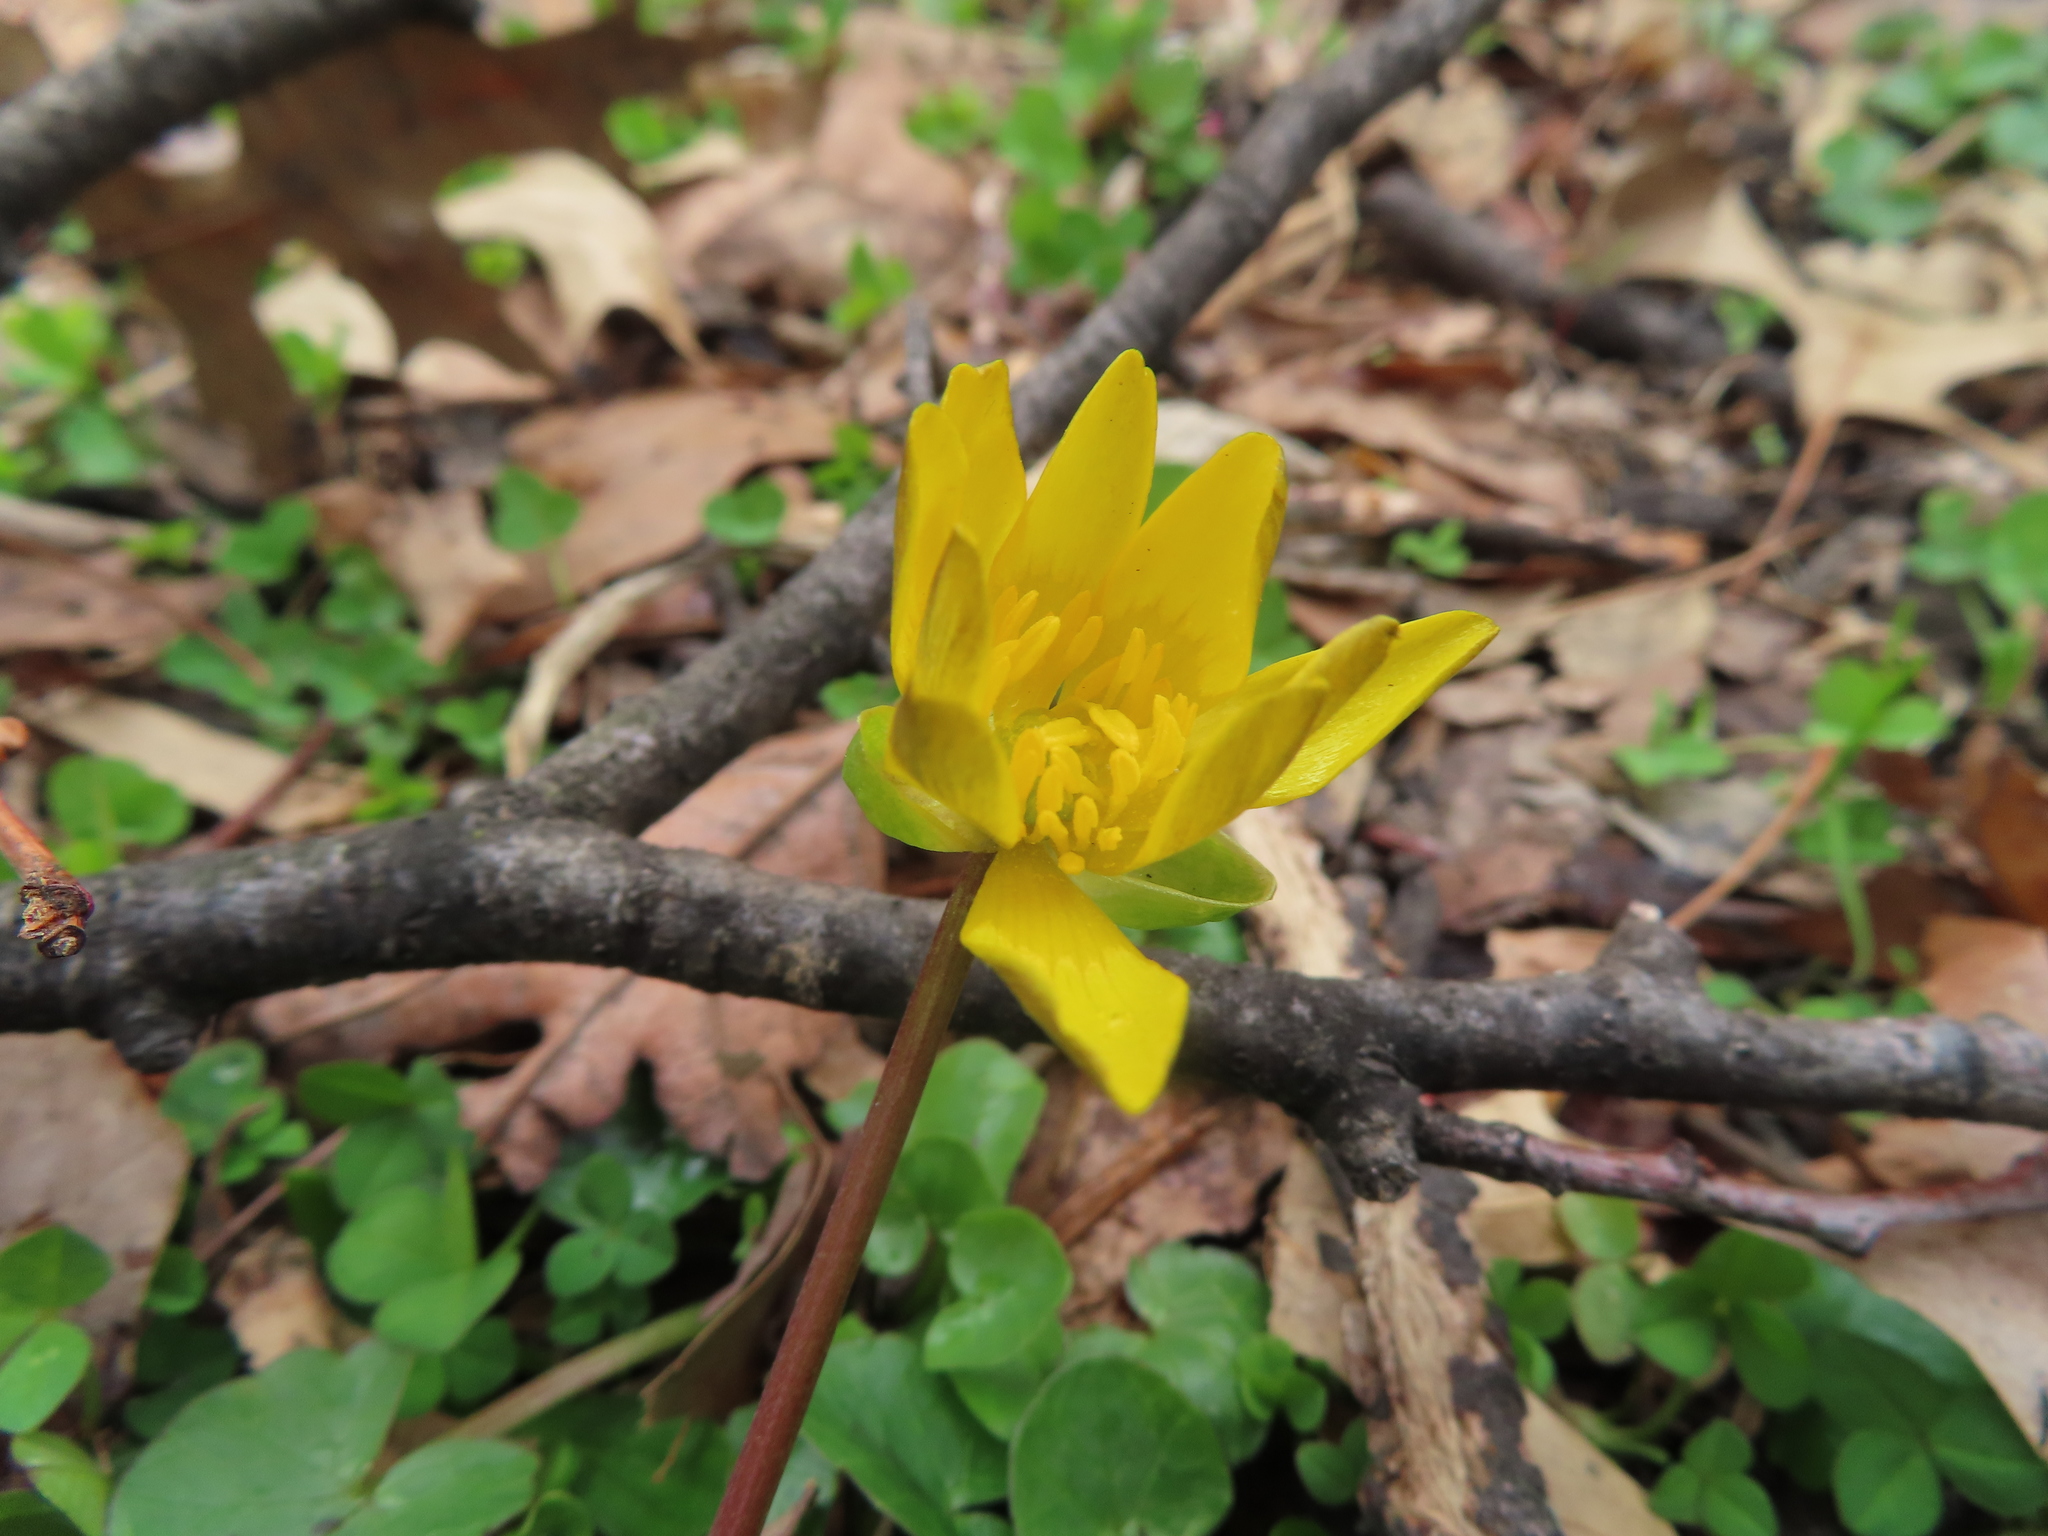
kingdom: Plantae
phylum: Tracheophyta
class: Magnoliopsida
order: Ranunculales
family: Ranunculaceae
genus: Ficaria
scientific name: Ficaria verna
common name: Lesser celandine
